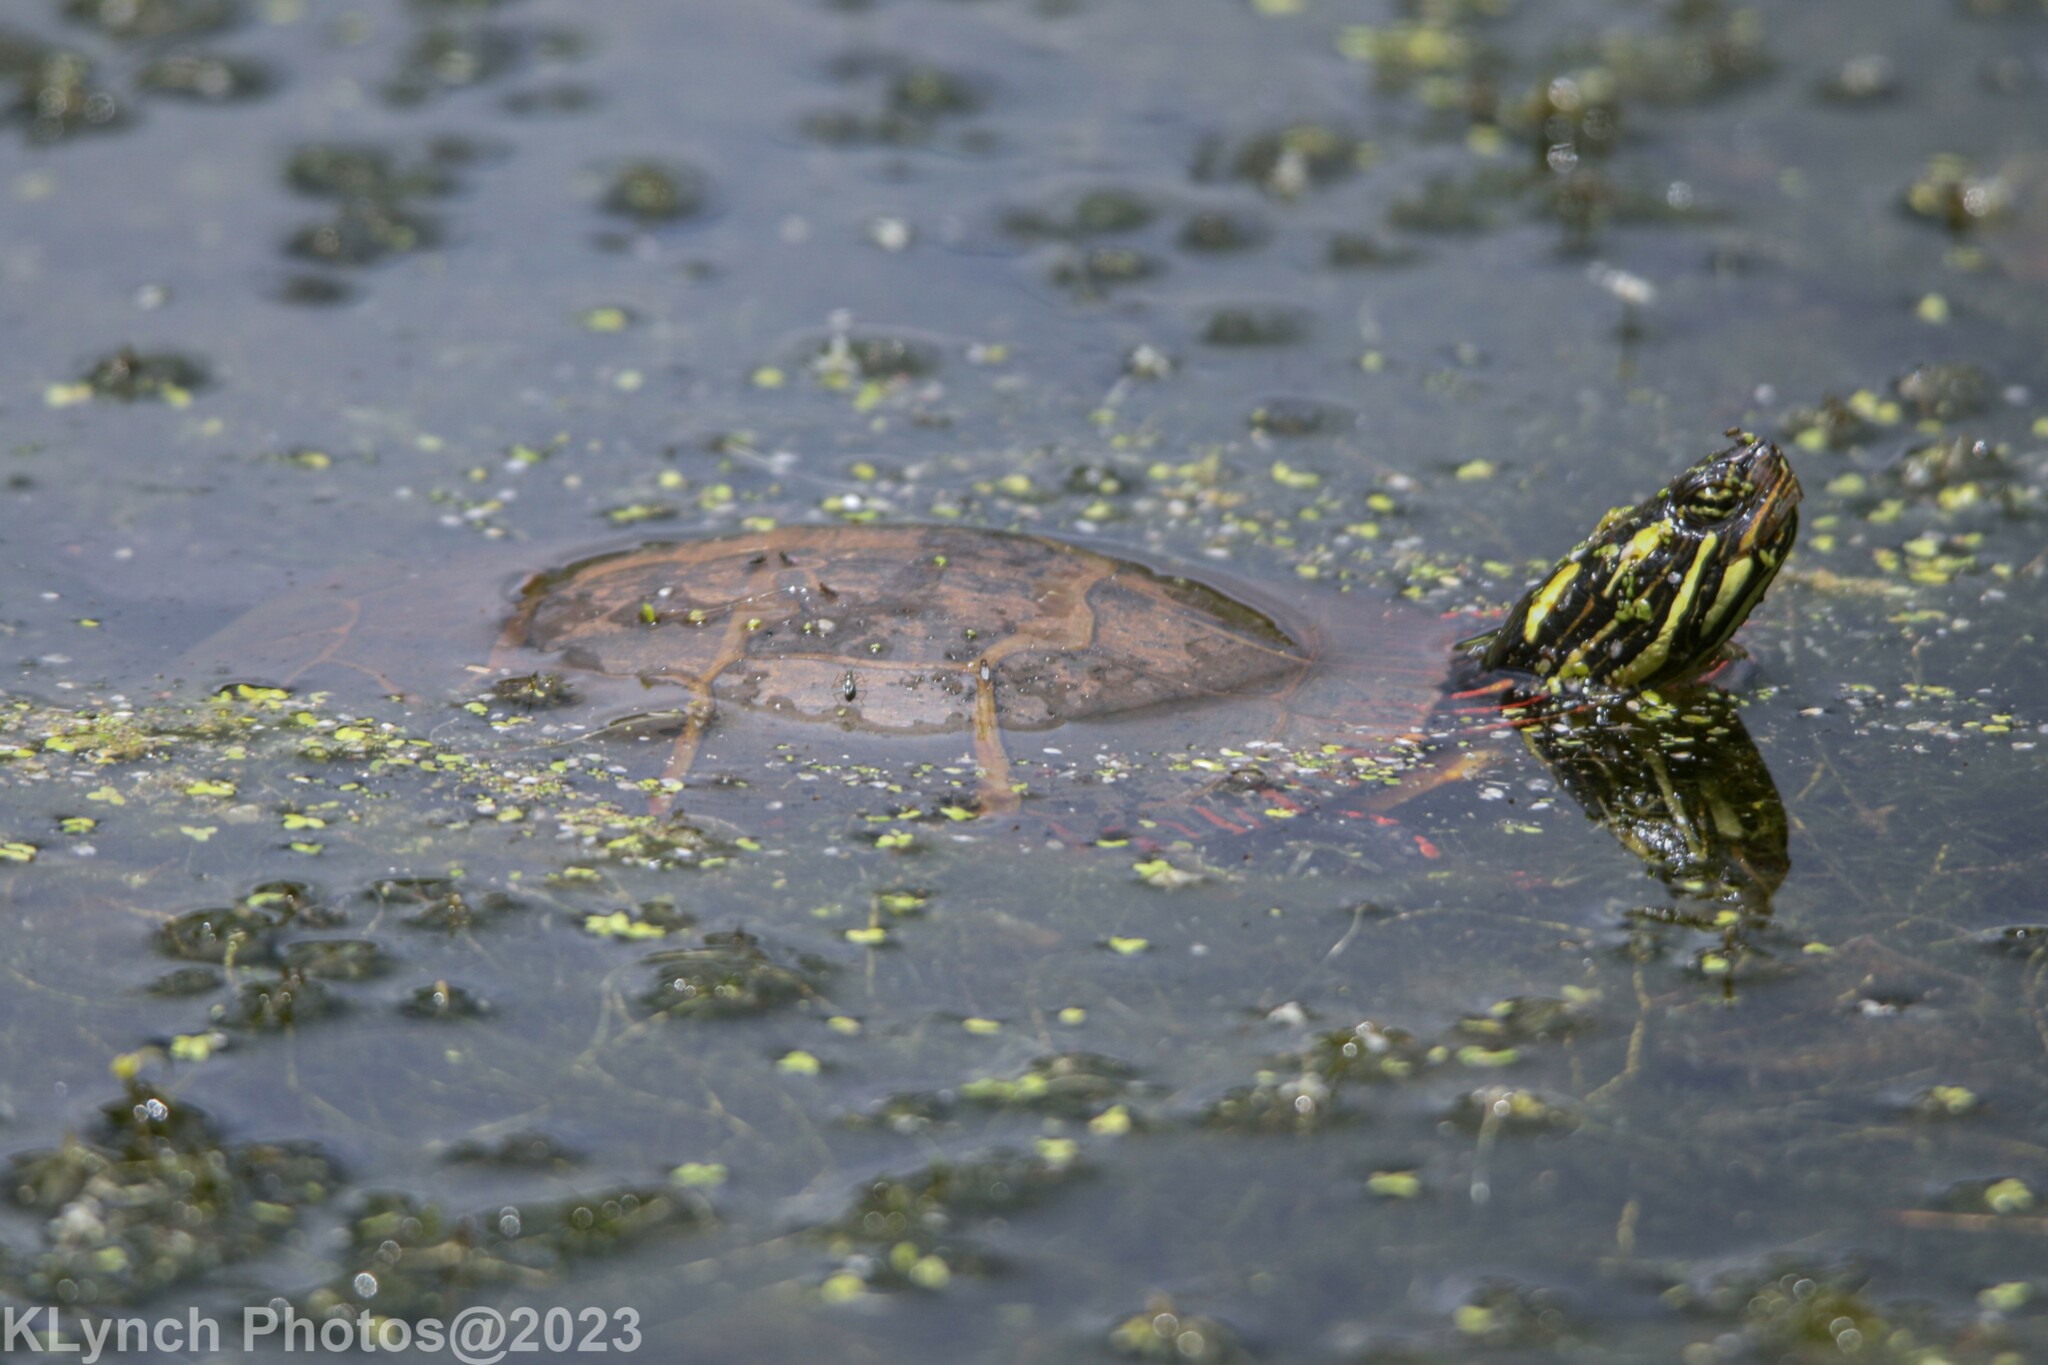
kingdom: Animalia
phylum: Chordata
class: Testudines
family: Emydidae
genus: Chrysemys
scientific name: Chrysemys picta
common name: Painted turtle
